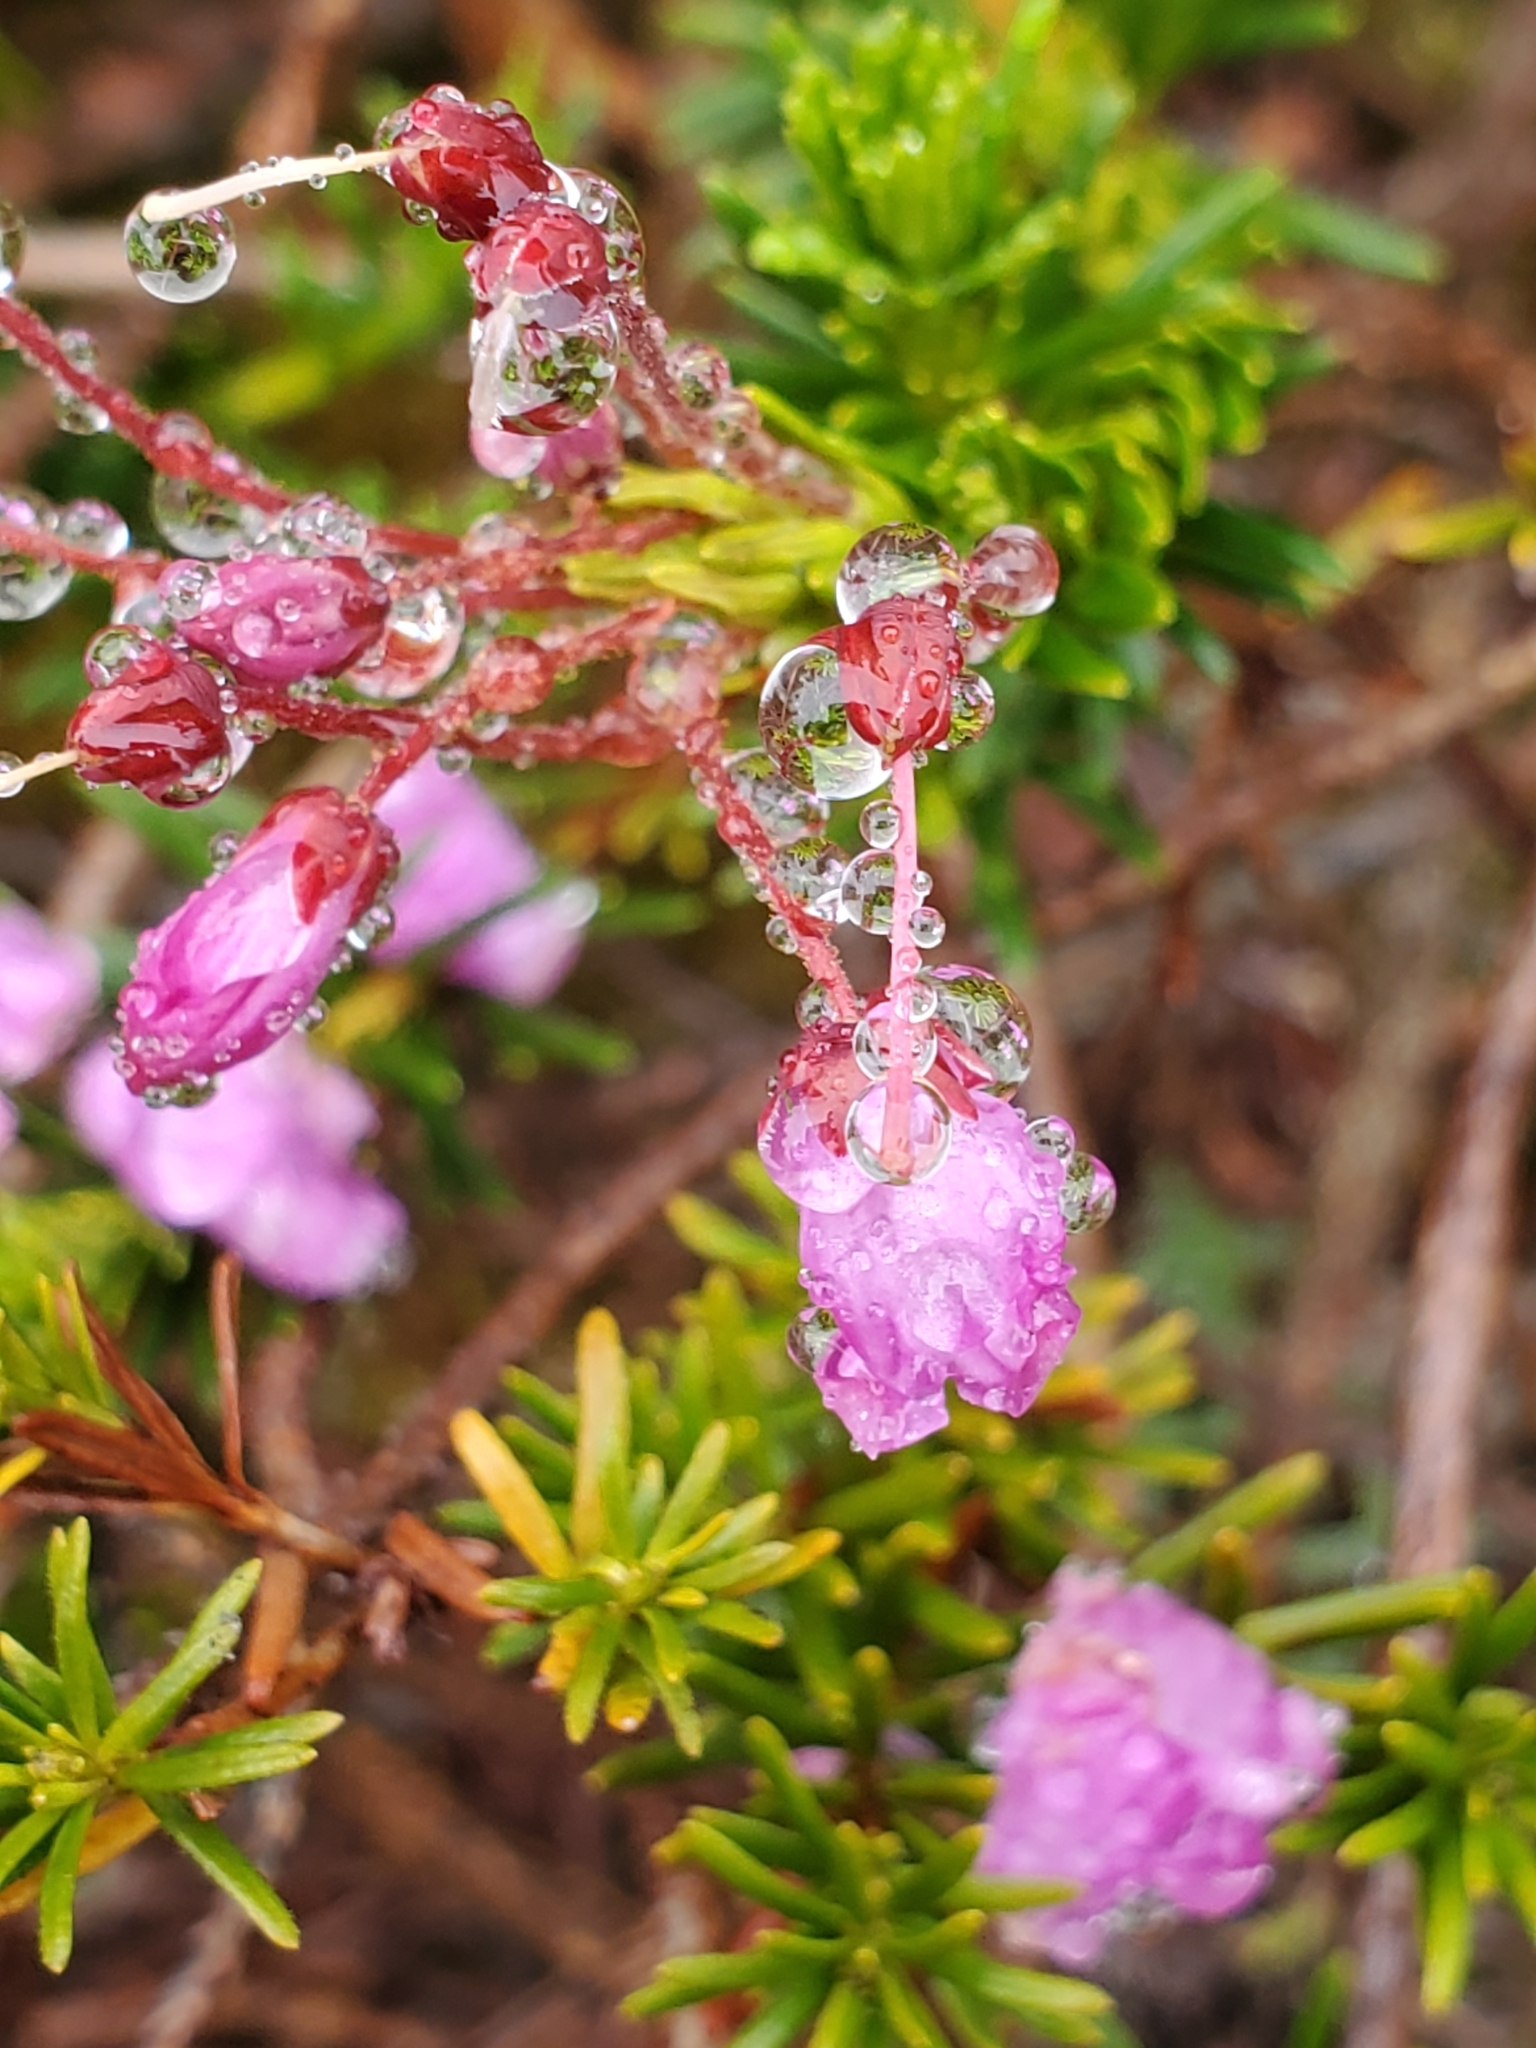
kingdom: Plantae
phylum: Tracheophyta
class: Magnoliopsida
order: Ericales
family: Ericaceae
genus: Phyllodoce
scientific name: Phyllodoce empetriformis
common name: Pink mountain heather
